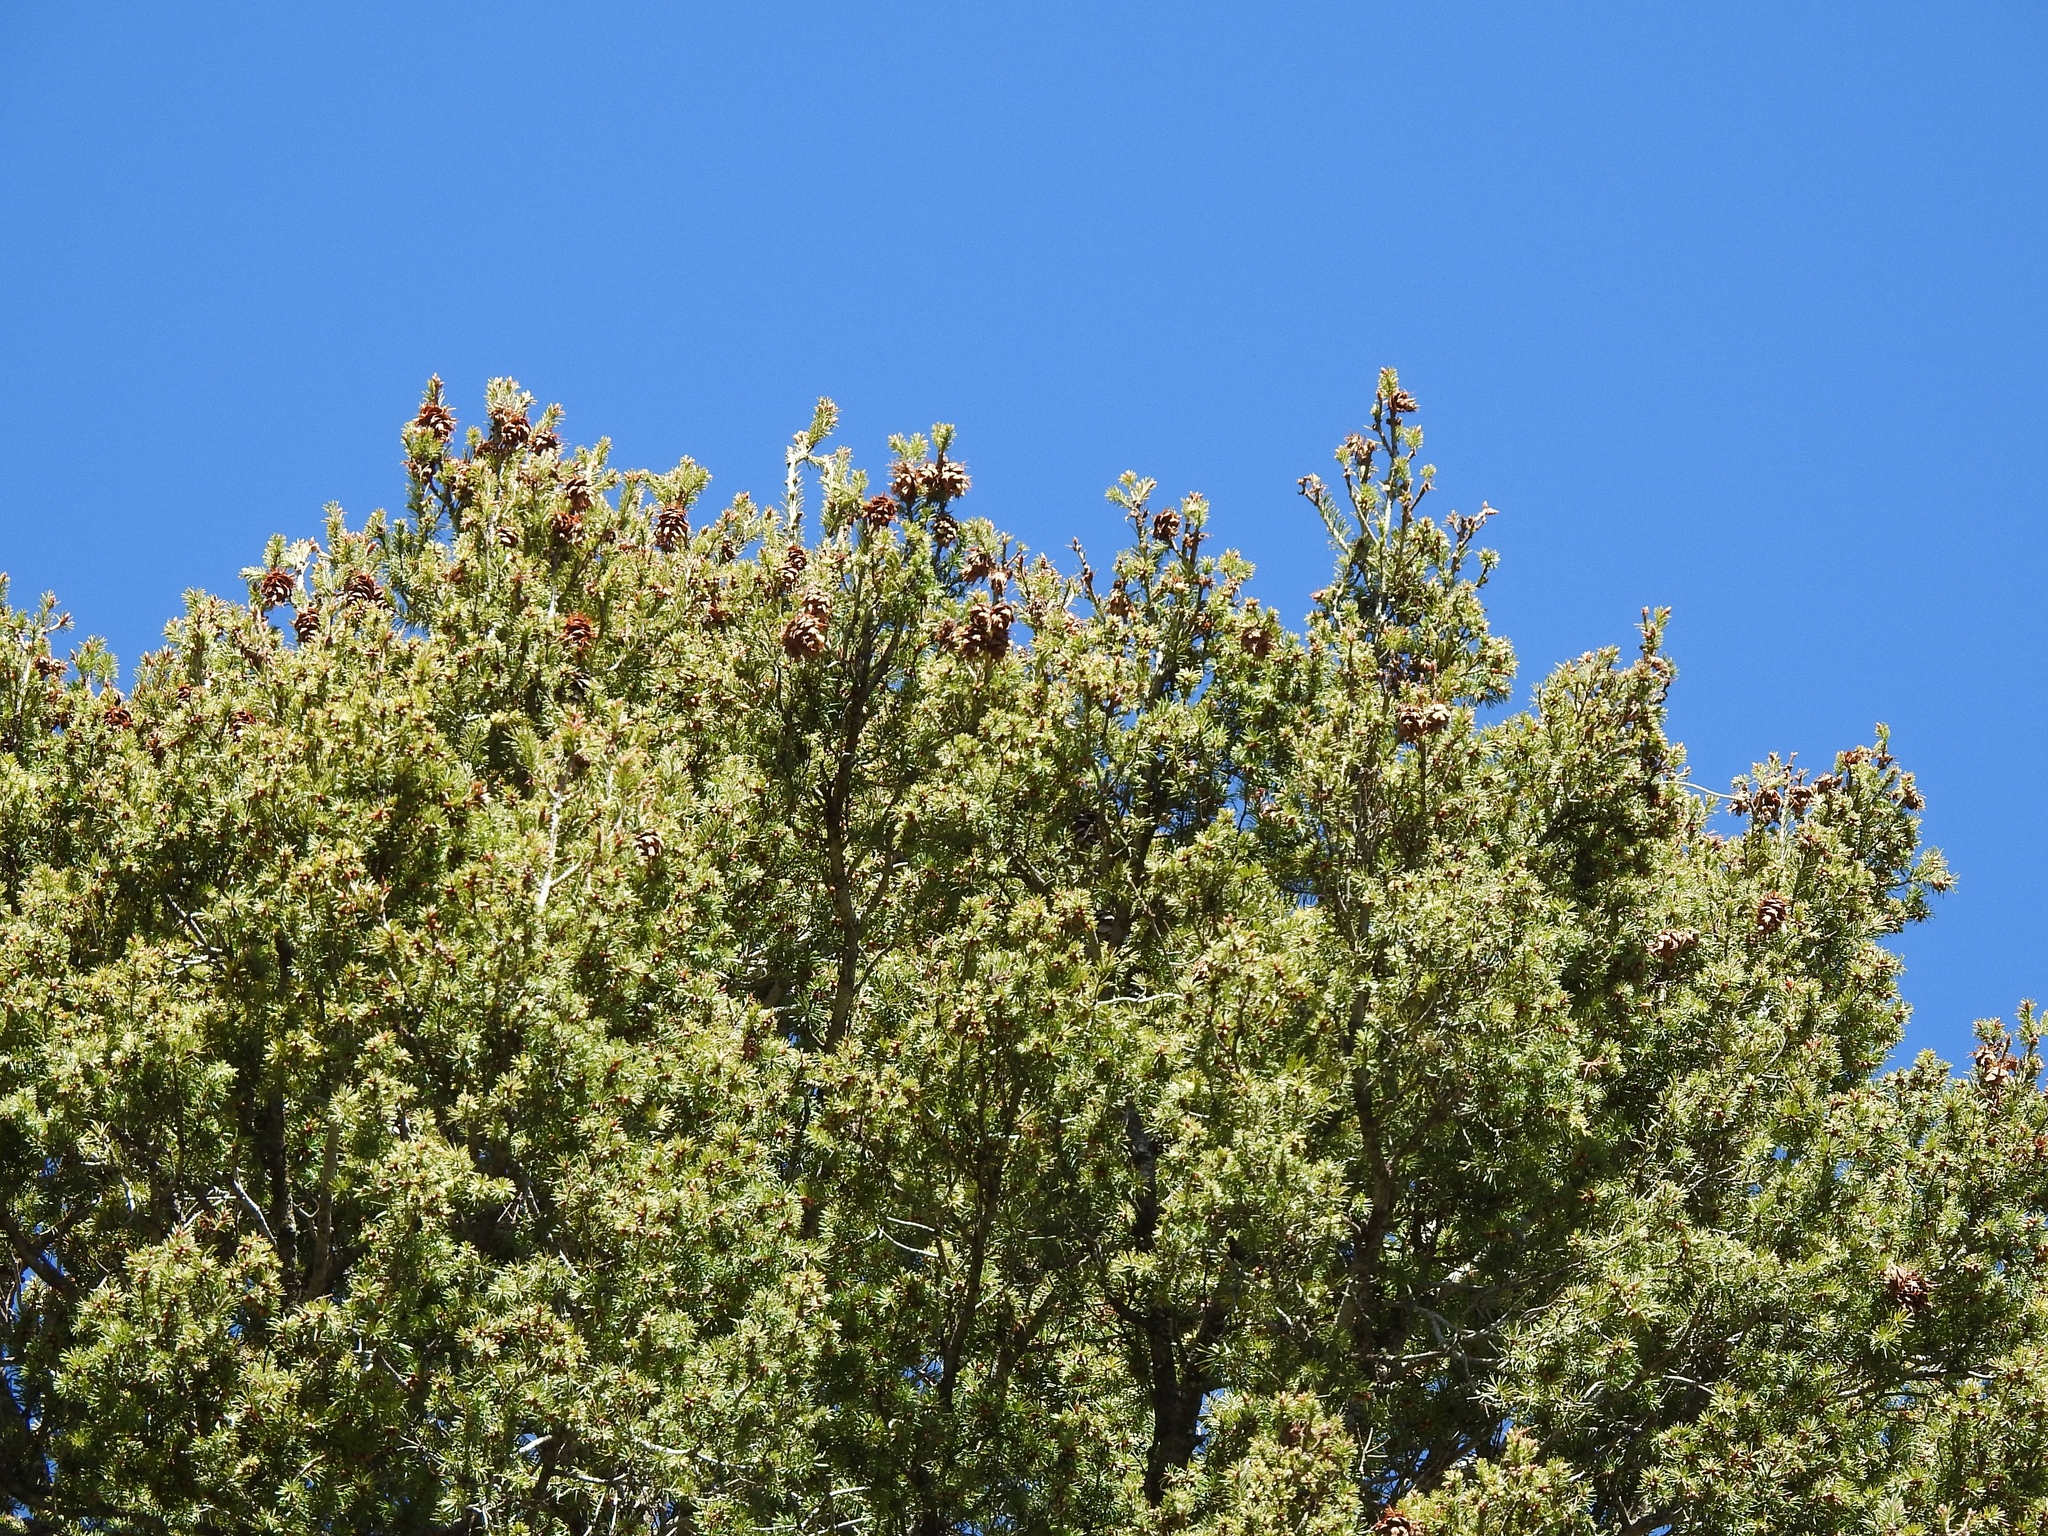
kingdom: Plantae
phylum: Tracheophyta
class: Pinopsida
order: Pinales
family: Pinaceae
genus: Pseudotsuga
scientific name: Pseudotsuga menziesii
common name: Douglas fir
